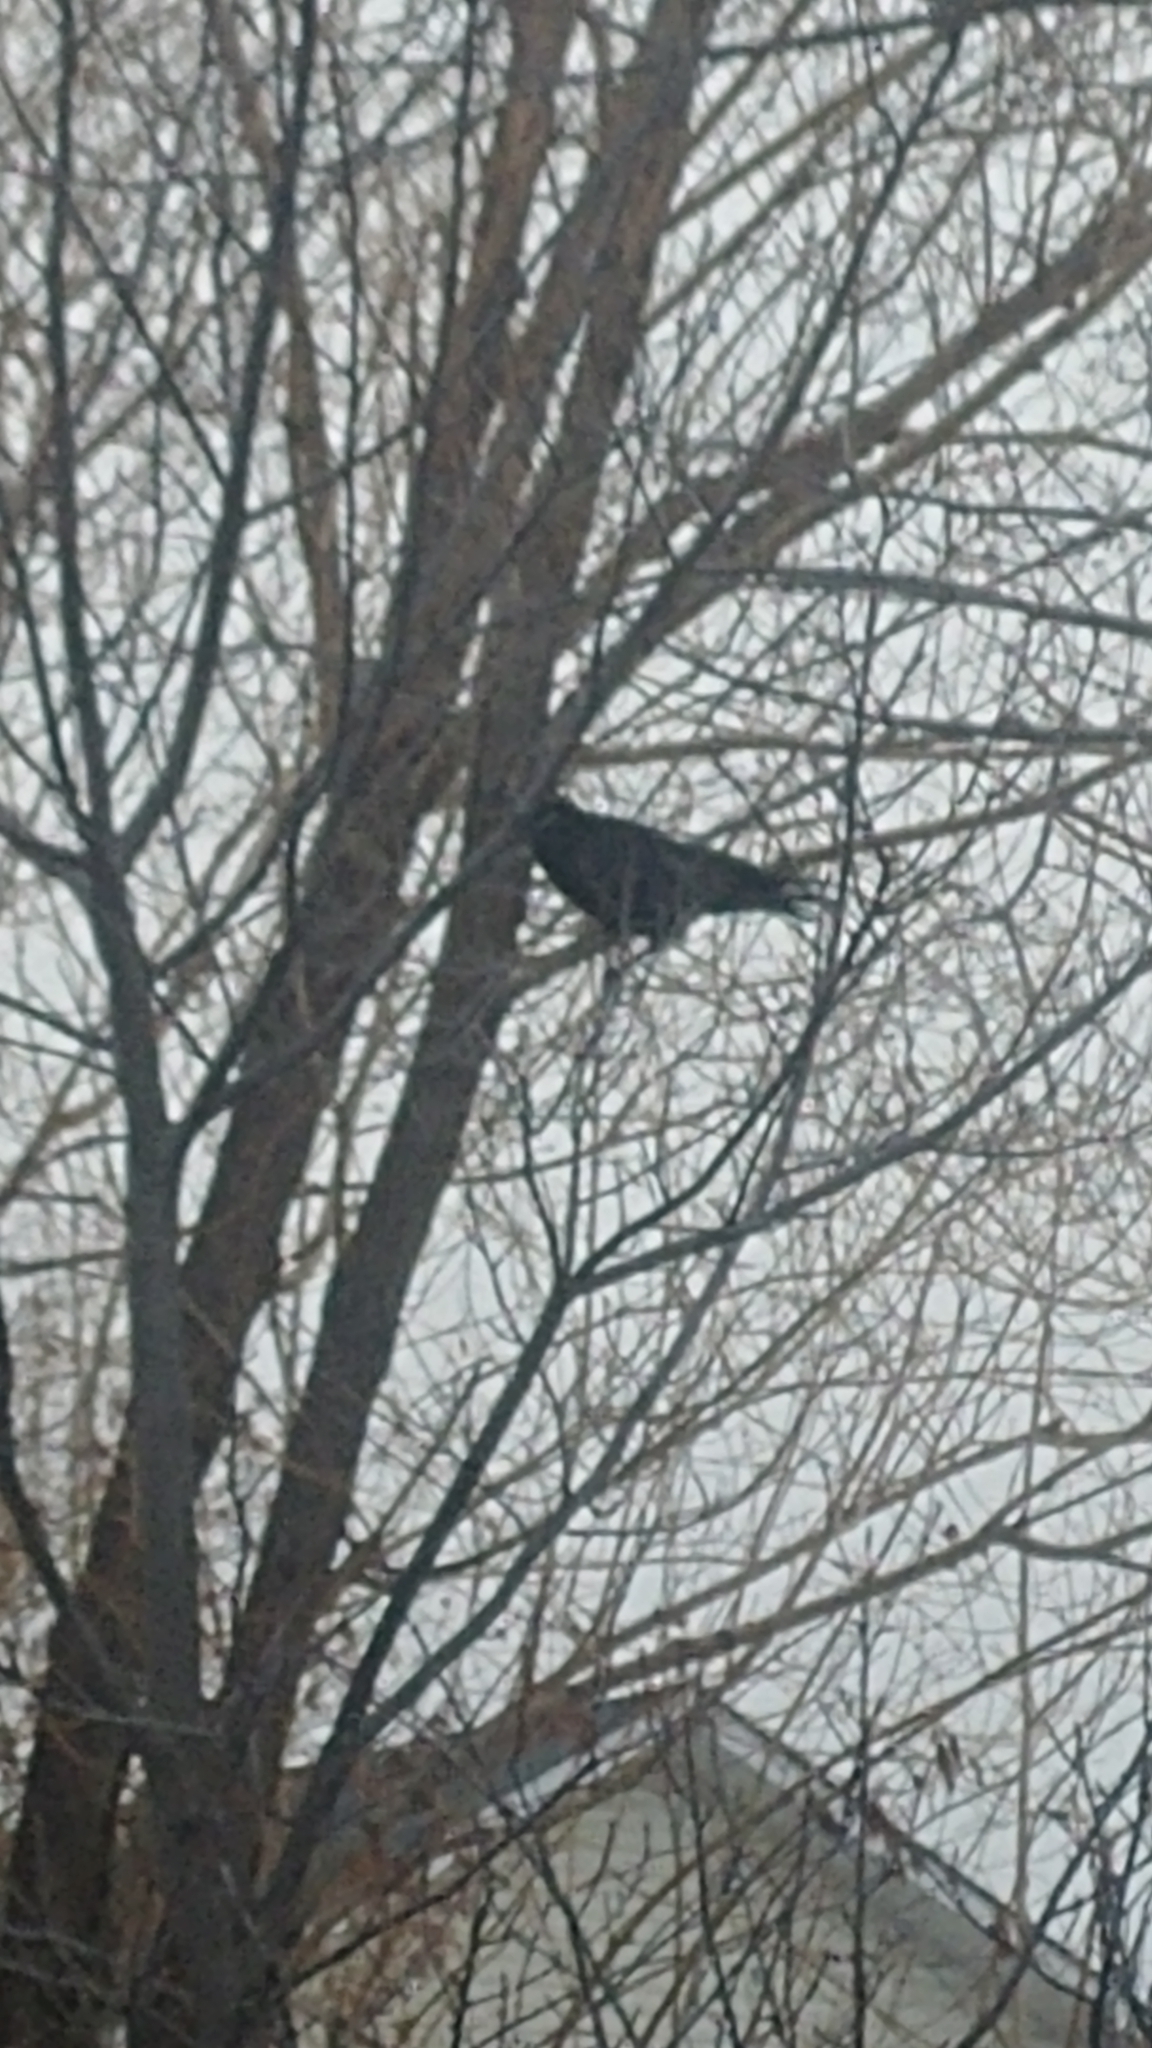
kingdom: Animalia
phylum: Chordata
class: Aves
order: Passeriformes
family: Corvidae
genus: Corvus
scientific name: Corvus brachyrhynchos
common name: American crow
